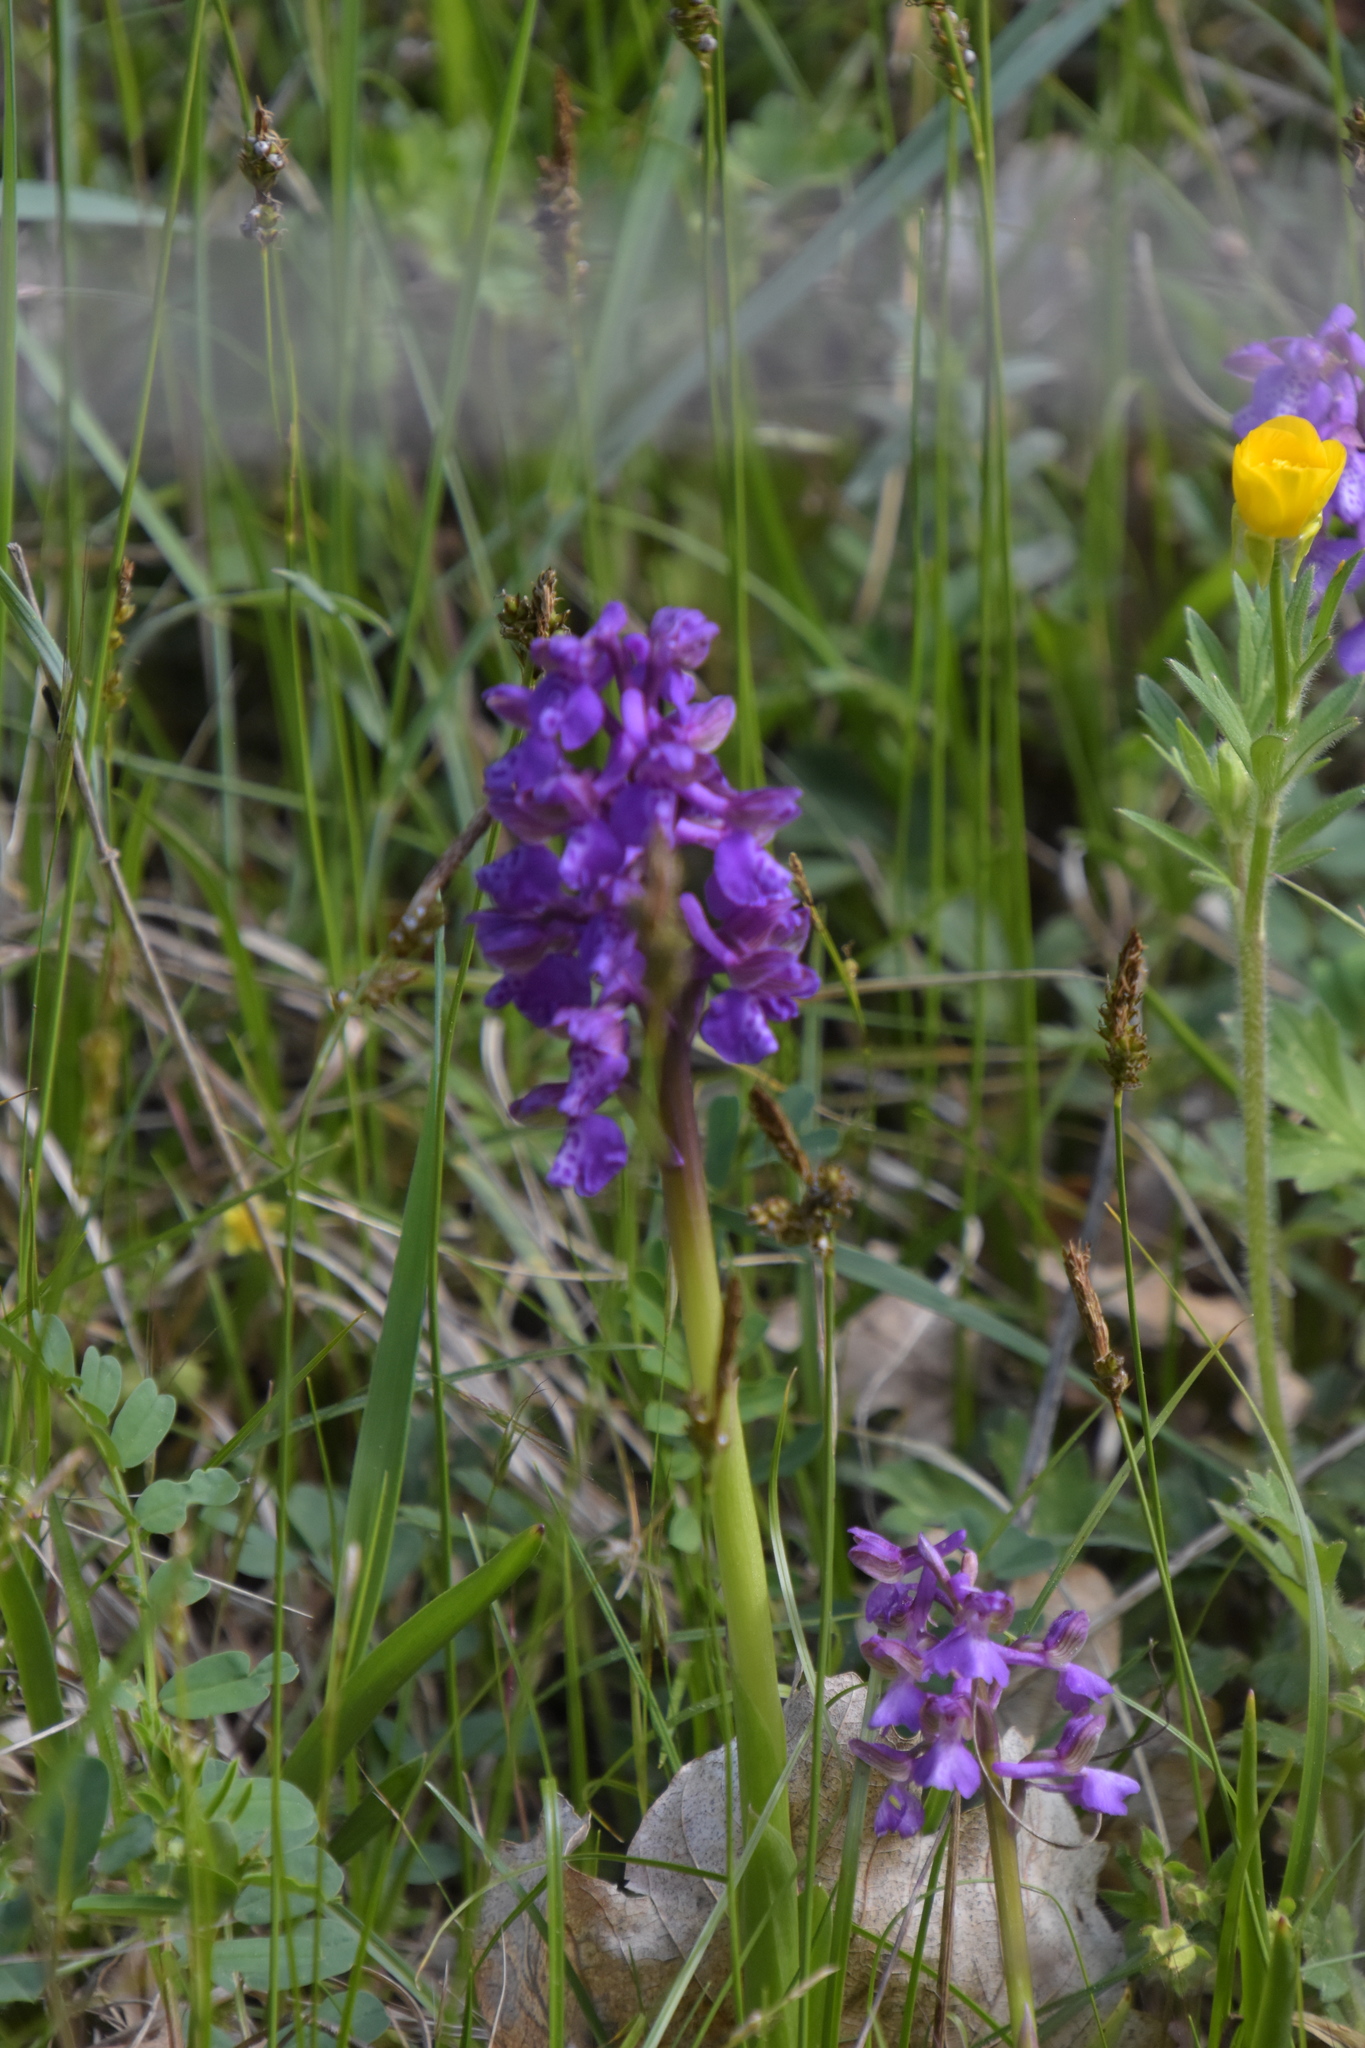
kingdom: Plantae
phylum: Tracheophyta
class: Liliopsida
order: Asparagales
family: Orchidaceae
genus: Anacamptis
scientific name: Anacamptis morio
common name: Green-winged orchid
